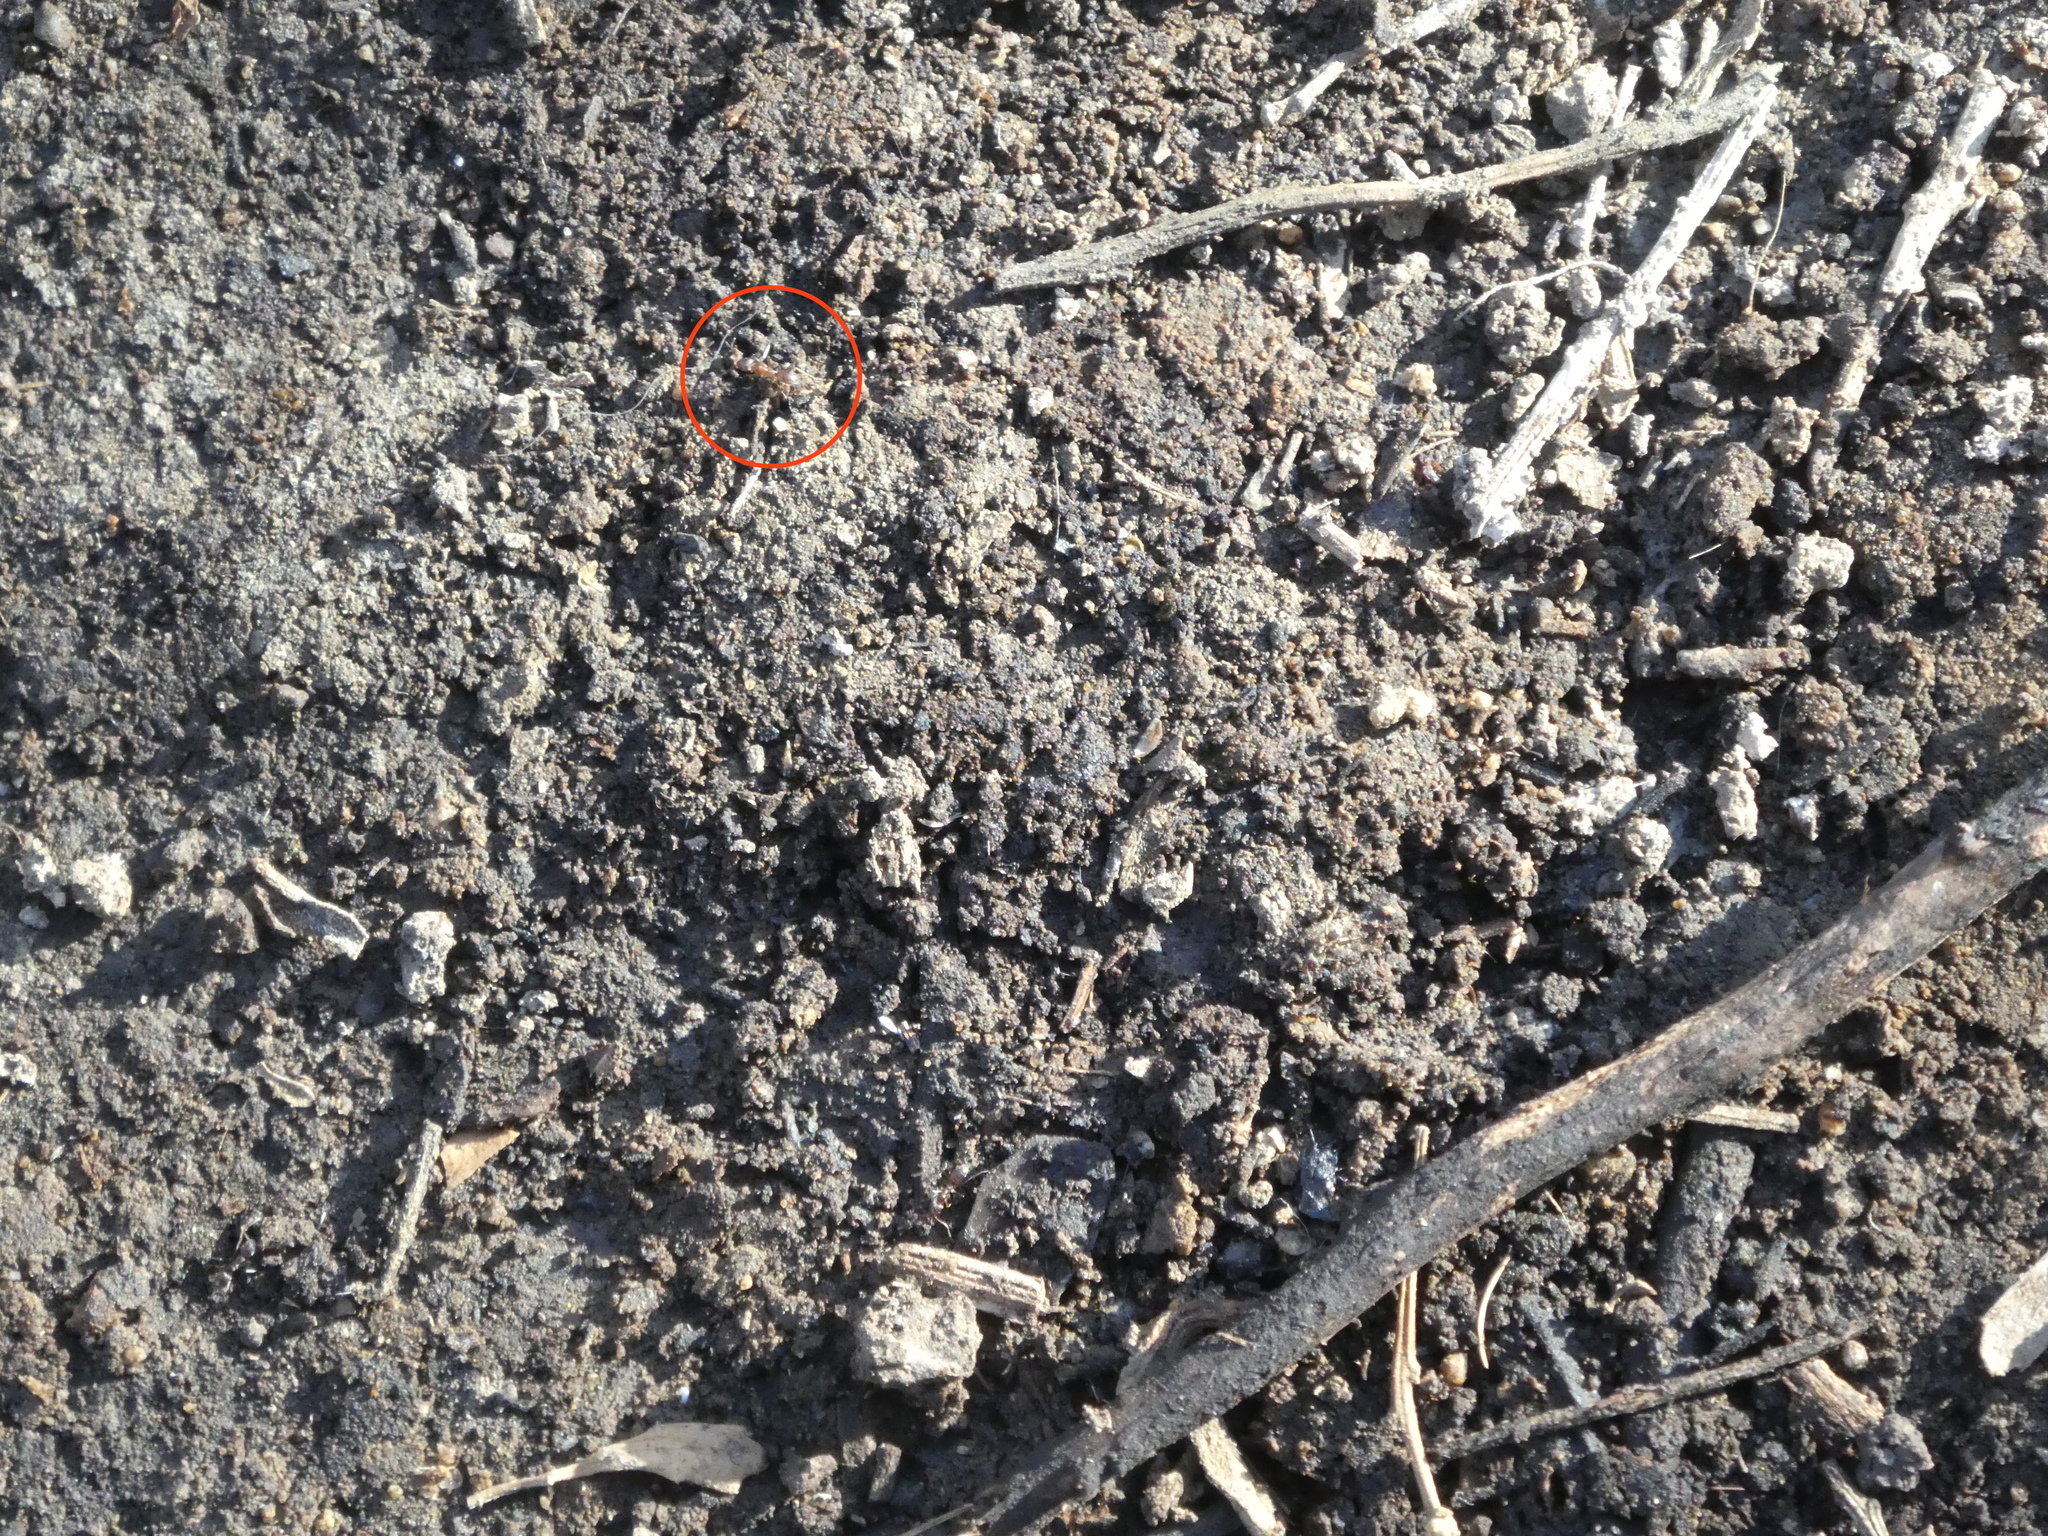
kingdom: Animalia
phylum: Arthropoda
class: Insecta
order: Hymenoptera
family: Formicidae
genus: Linepithema
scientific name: Linepithema humile
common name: Argentine ant
